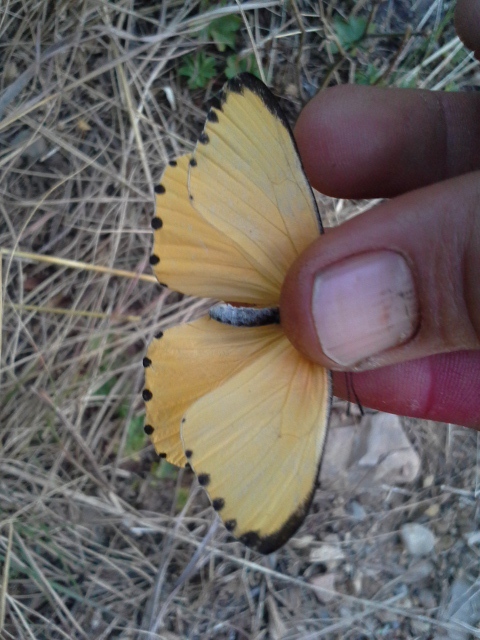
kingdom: Animalia
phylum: Arthropoda
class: Insecta
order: Lepidoptera
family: Pieridae
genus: Mylothris
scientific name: Mylothris agathina
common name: Eastern dotted border
